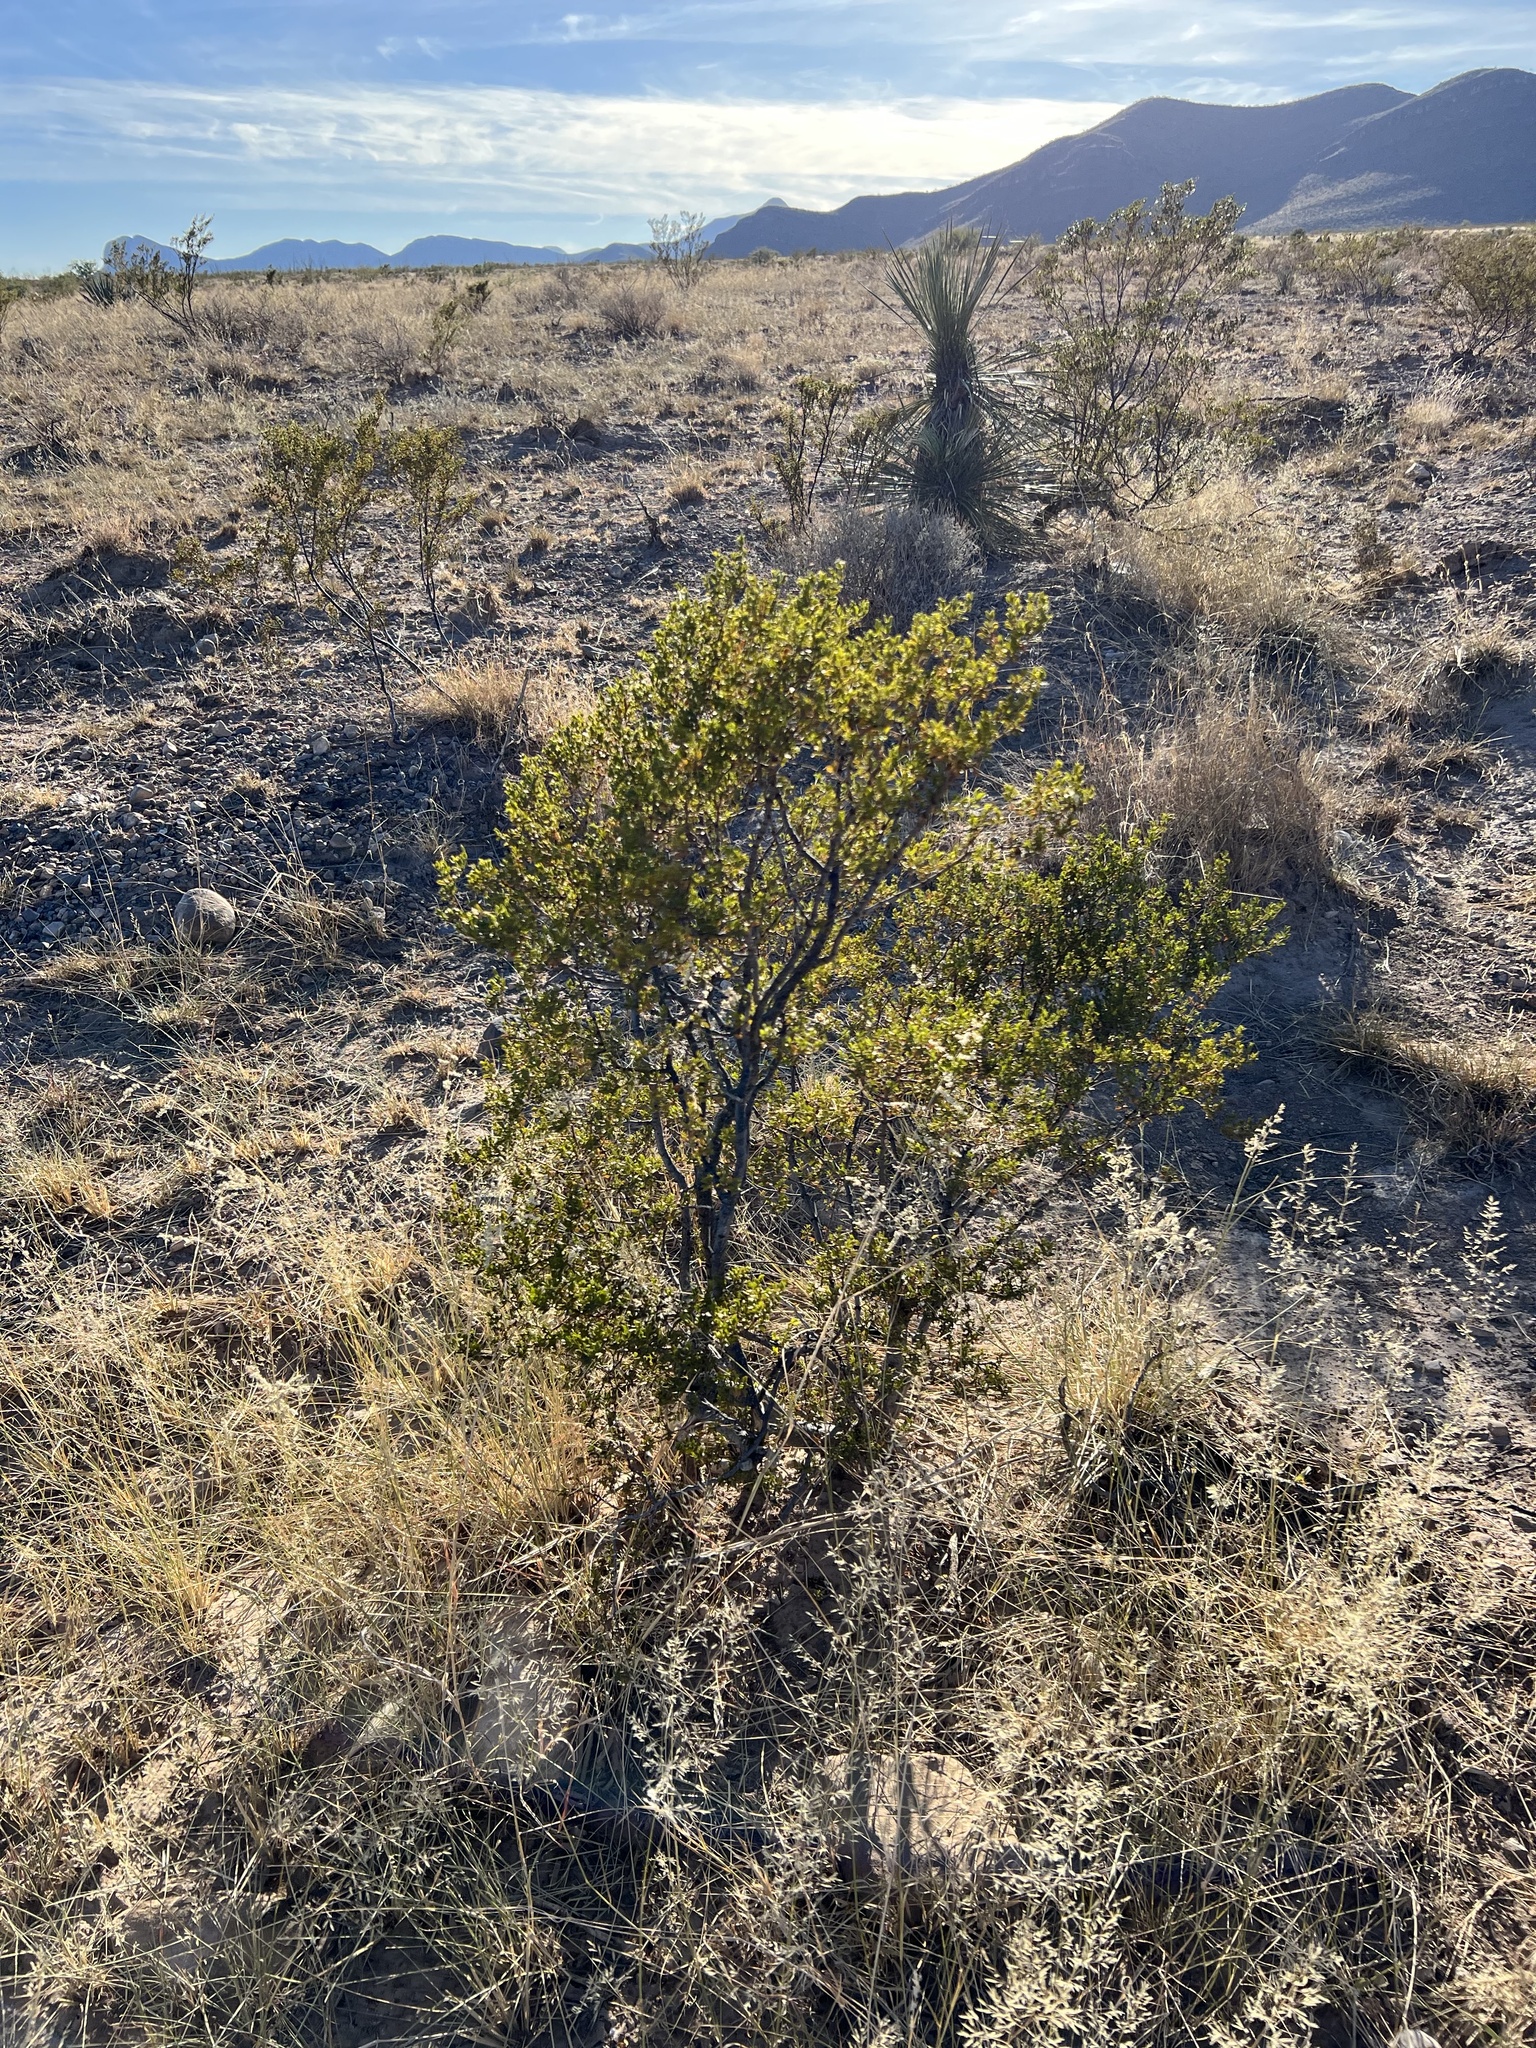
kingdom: Plantae
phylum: Tracheophyta
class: Magnoliopsida
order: Zygophyllales
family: Zygophyllaceae
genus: Larrea
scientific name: Larrea tridentata
